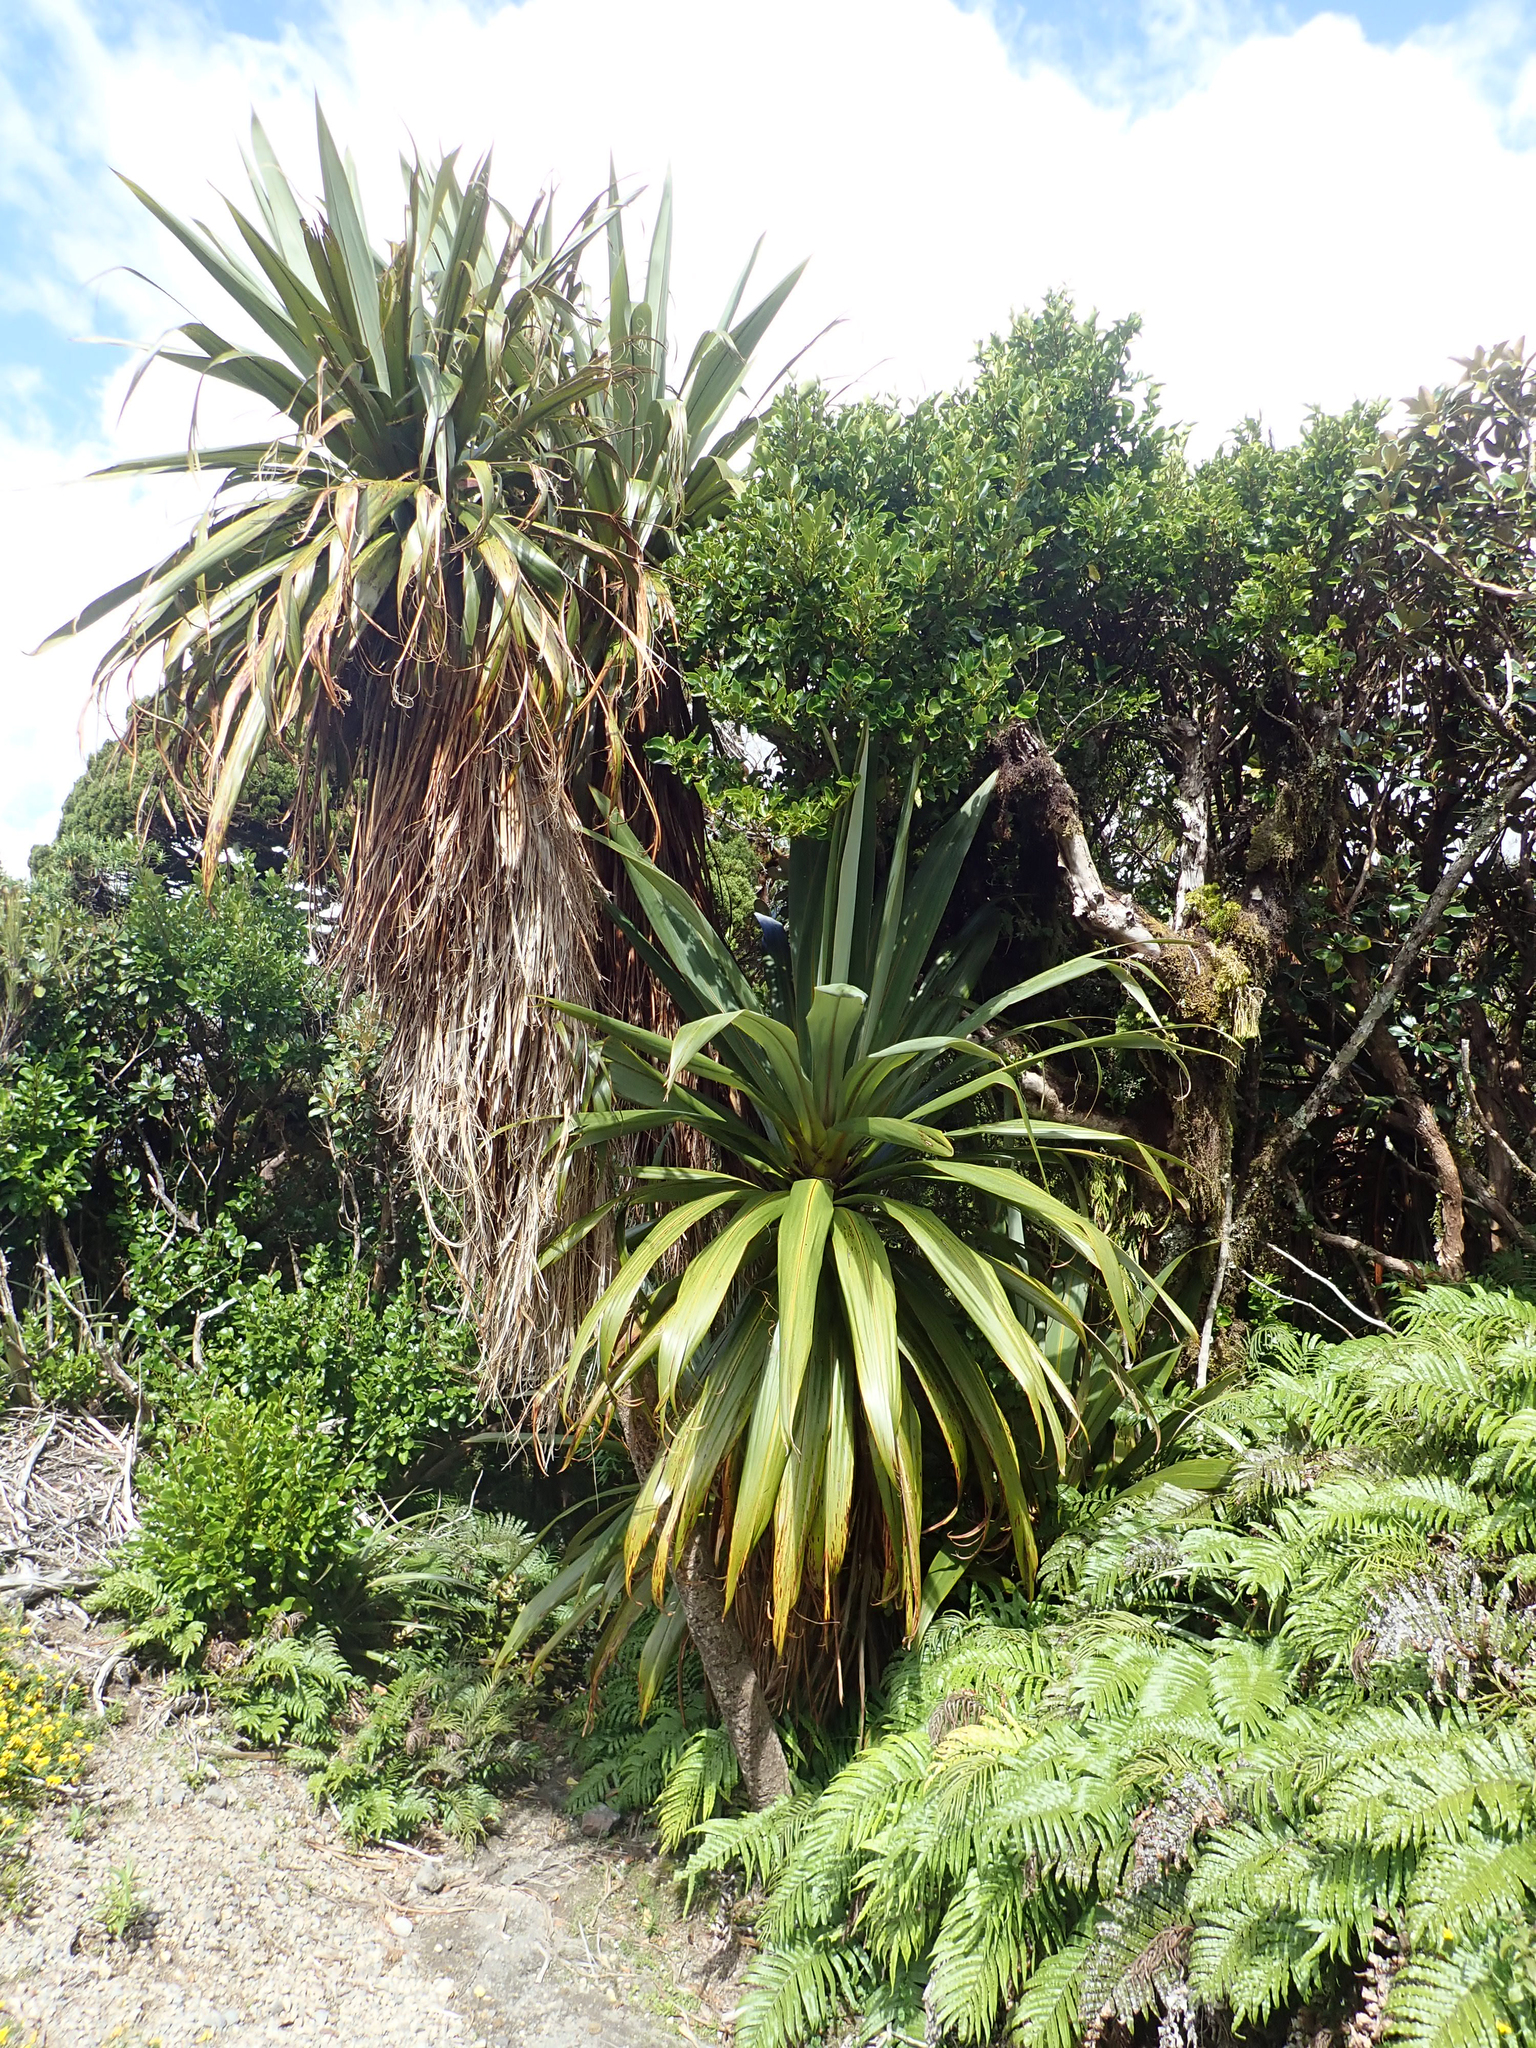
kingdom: Plantae
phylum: Tracheophyta
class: Liliopsida
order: Asparagales
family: Asparagaceae
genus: Cordyline
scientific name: Cordyline indivisa
